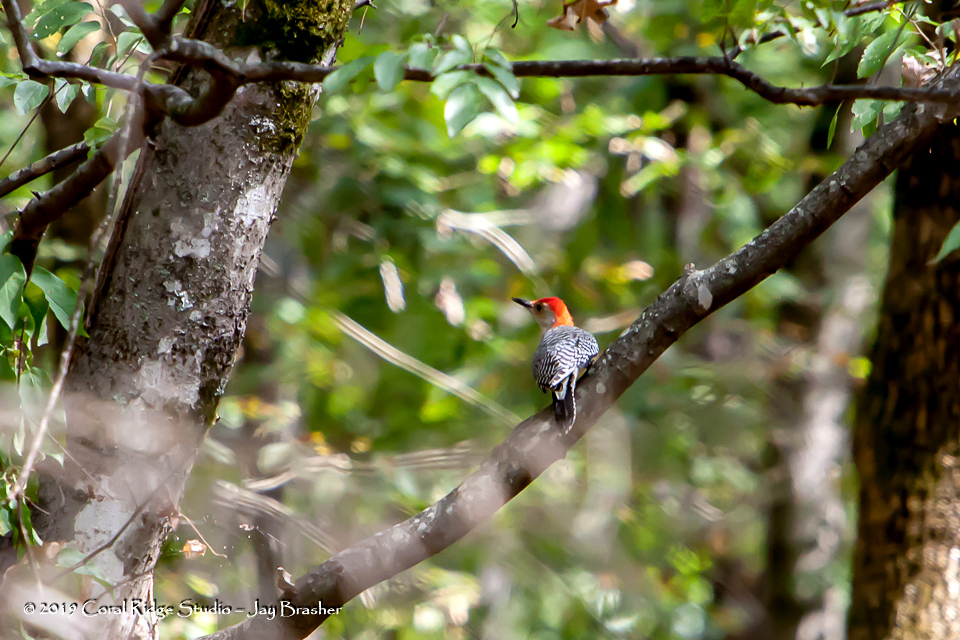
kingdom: Animalia
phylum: Chordata
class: Aves
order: Piciformes
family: Picidae
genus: Melanerpes
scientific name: Melanerpes carolinus
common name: Red-bellied woodpecker
